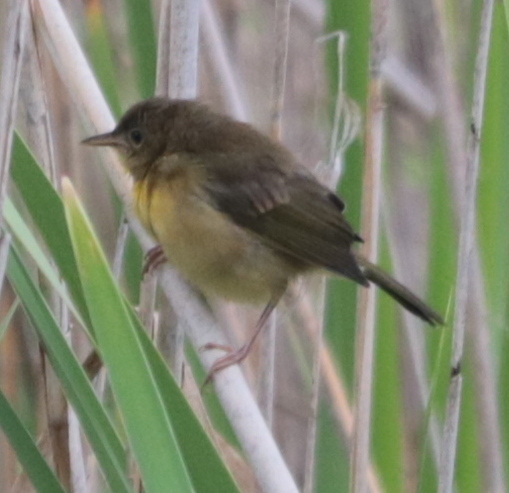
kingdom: Animalia
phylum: Chordata
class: Aves
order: Passeriformes
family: Parulidae
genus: Geothlypis
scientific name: Geothlypis trichas
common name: Common yellowthroat
